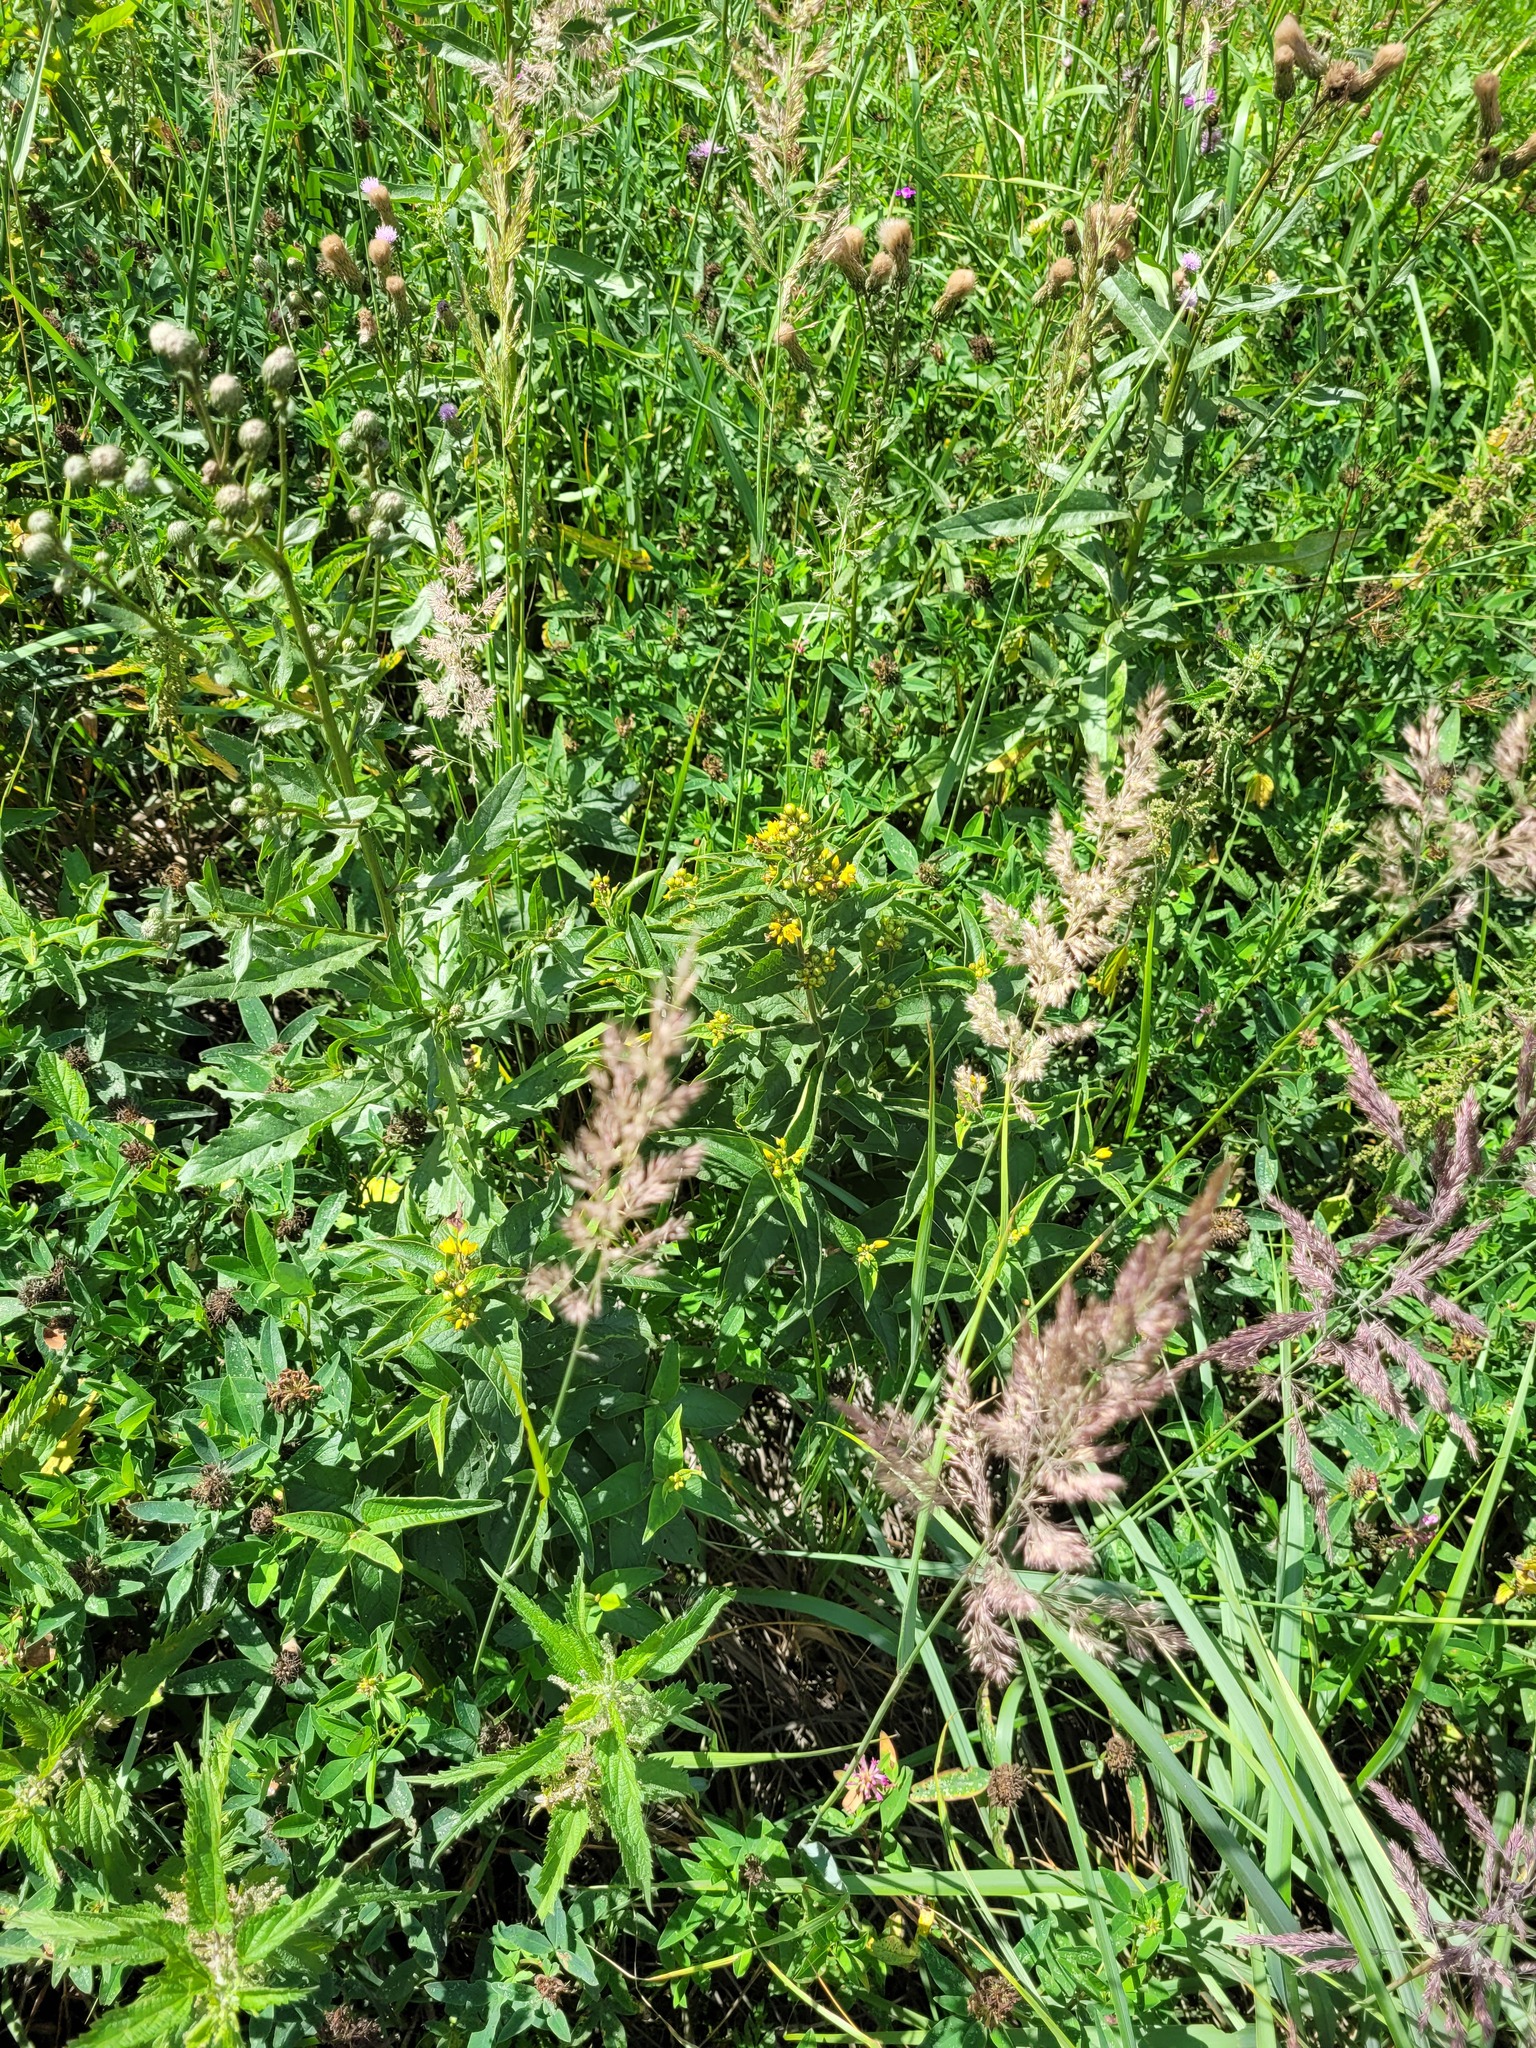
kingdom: Plantae
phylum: Tracheophyta
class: Magnoliopsida
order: Ericales
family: Primulaceae
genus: Lysimachia
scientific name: Lysimachia vulgaris
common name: Yellow loosestrife
